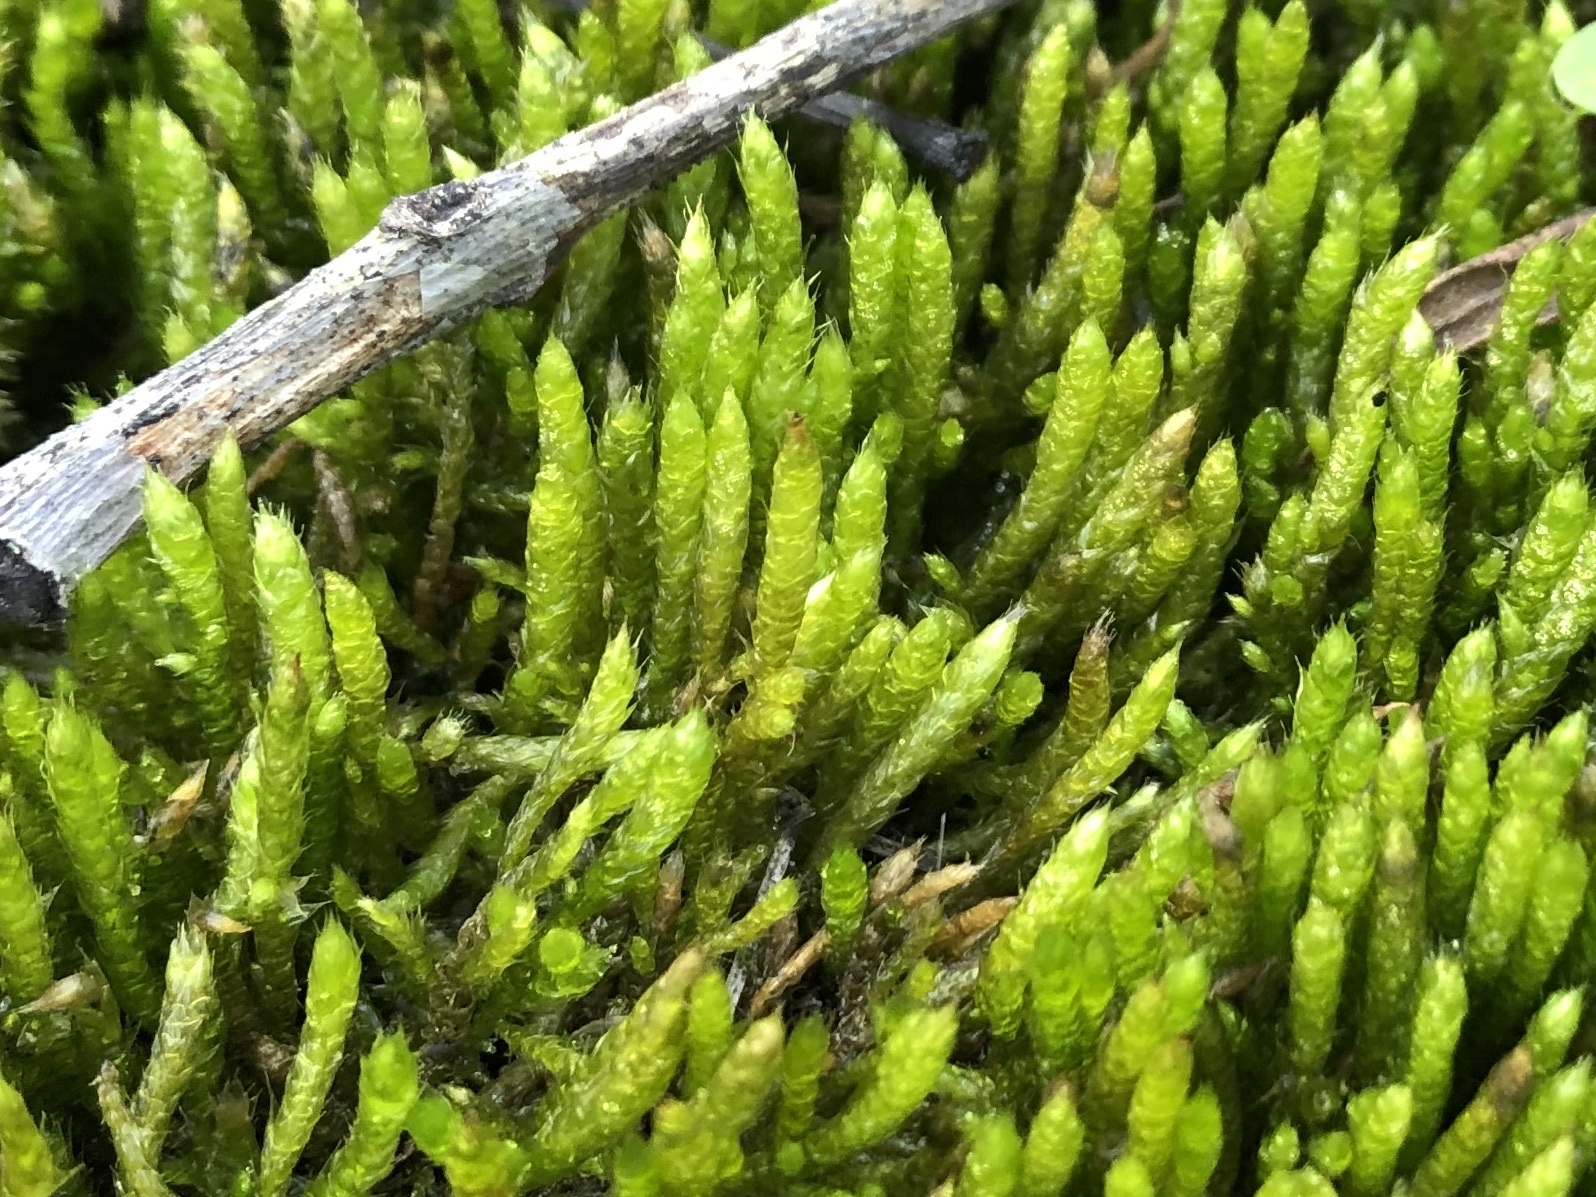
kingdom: Plantae
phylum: Bryophyta
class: Bryopsida
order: Hypnales
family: Brachytheciaceae
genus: Brachythecium
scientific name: Brachythecium albicans
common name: Whitish ragged moss
